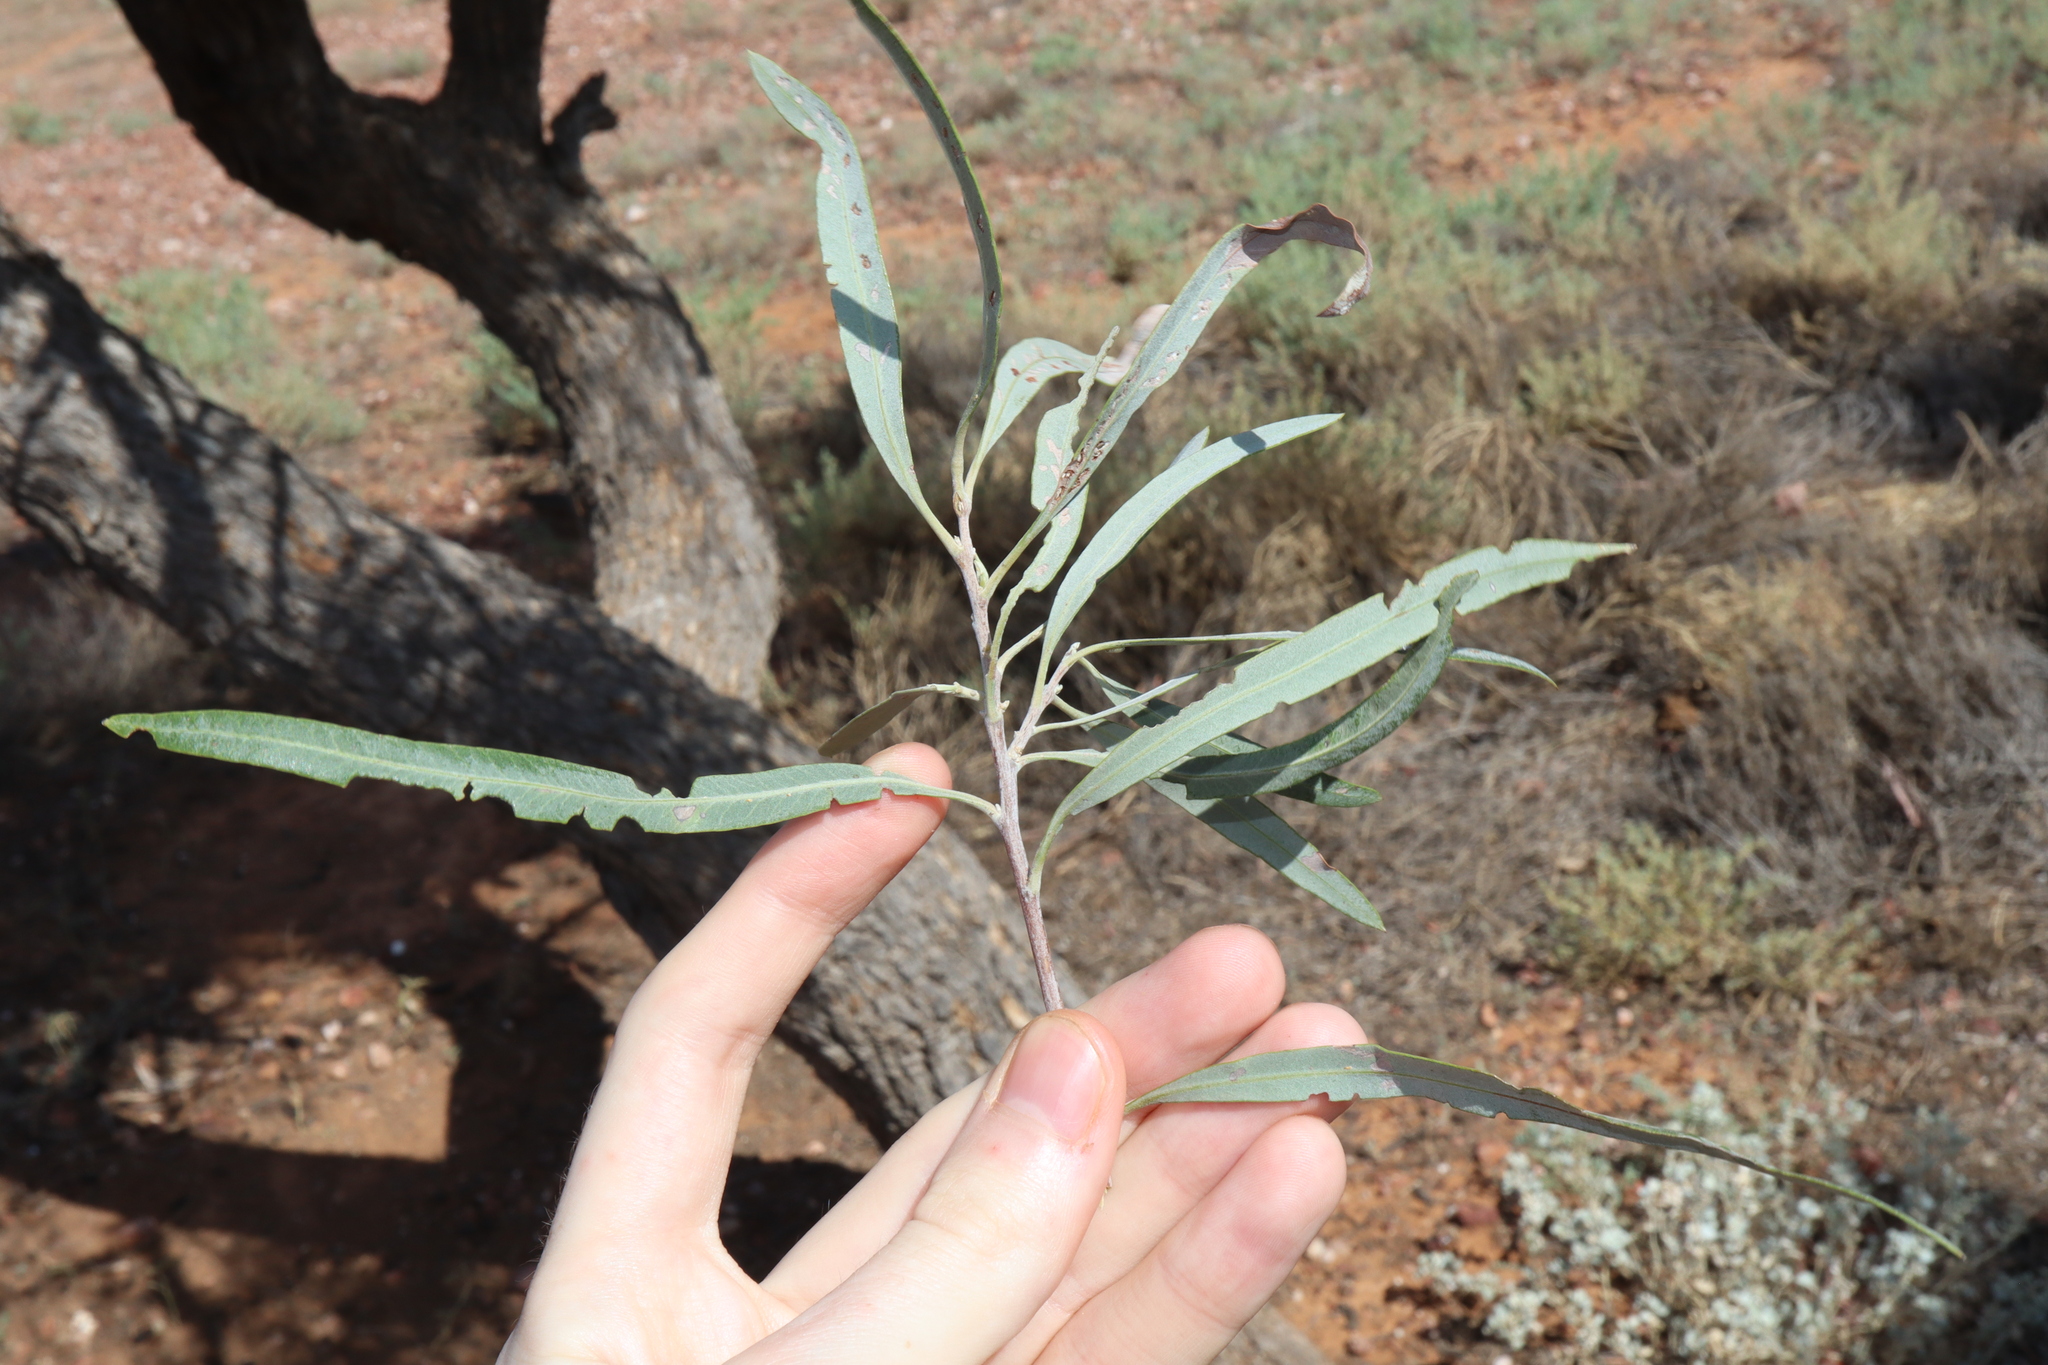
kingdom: Plantae
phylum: Tracheophyta
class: Magnoliopsida
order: Sapindales
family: Sapindaceae
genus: Alectryon
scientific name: Alectryon oleifolius
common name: Australian rosewood
